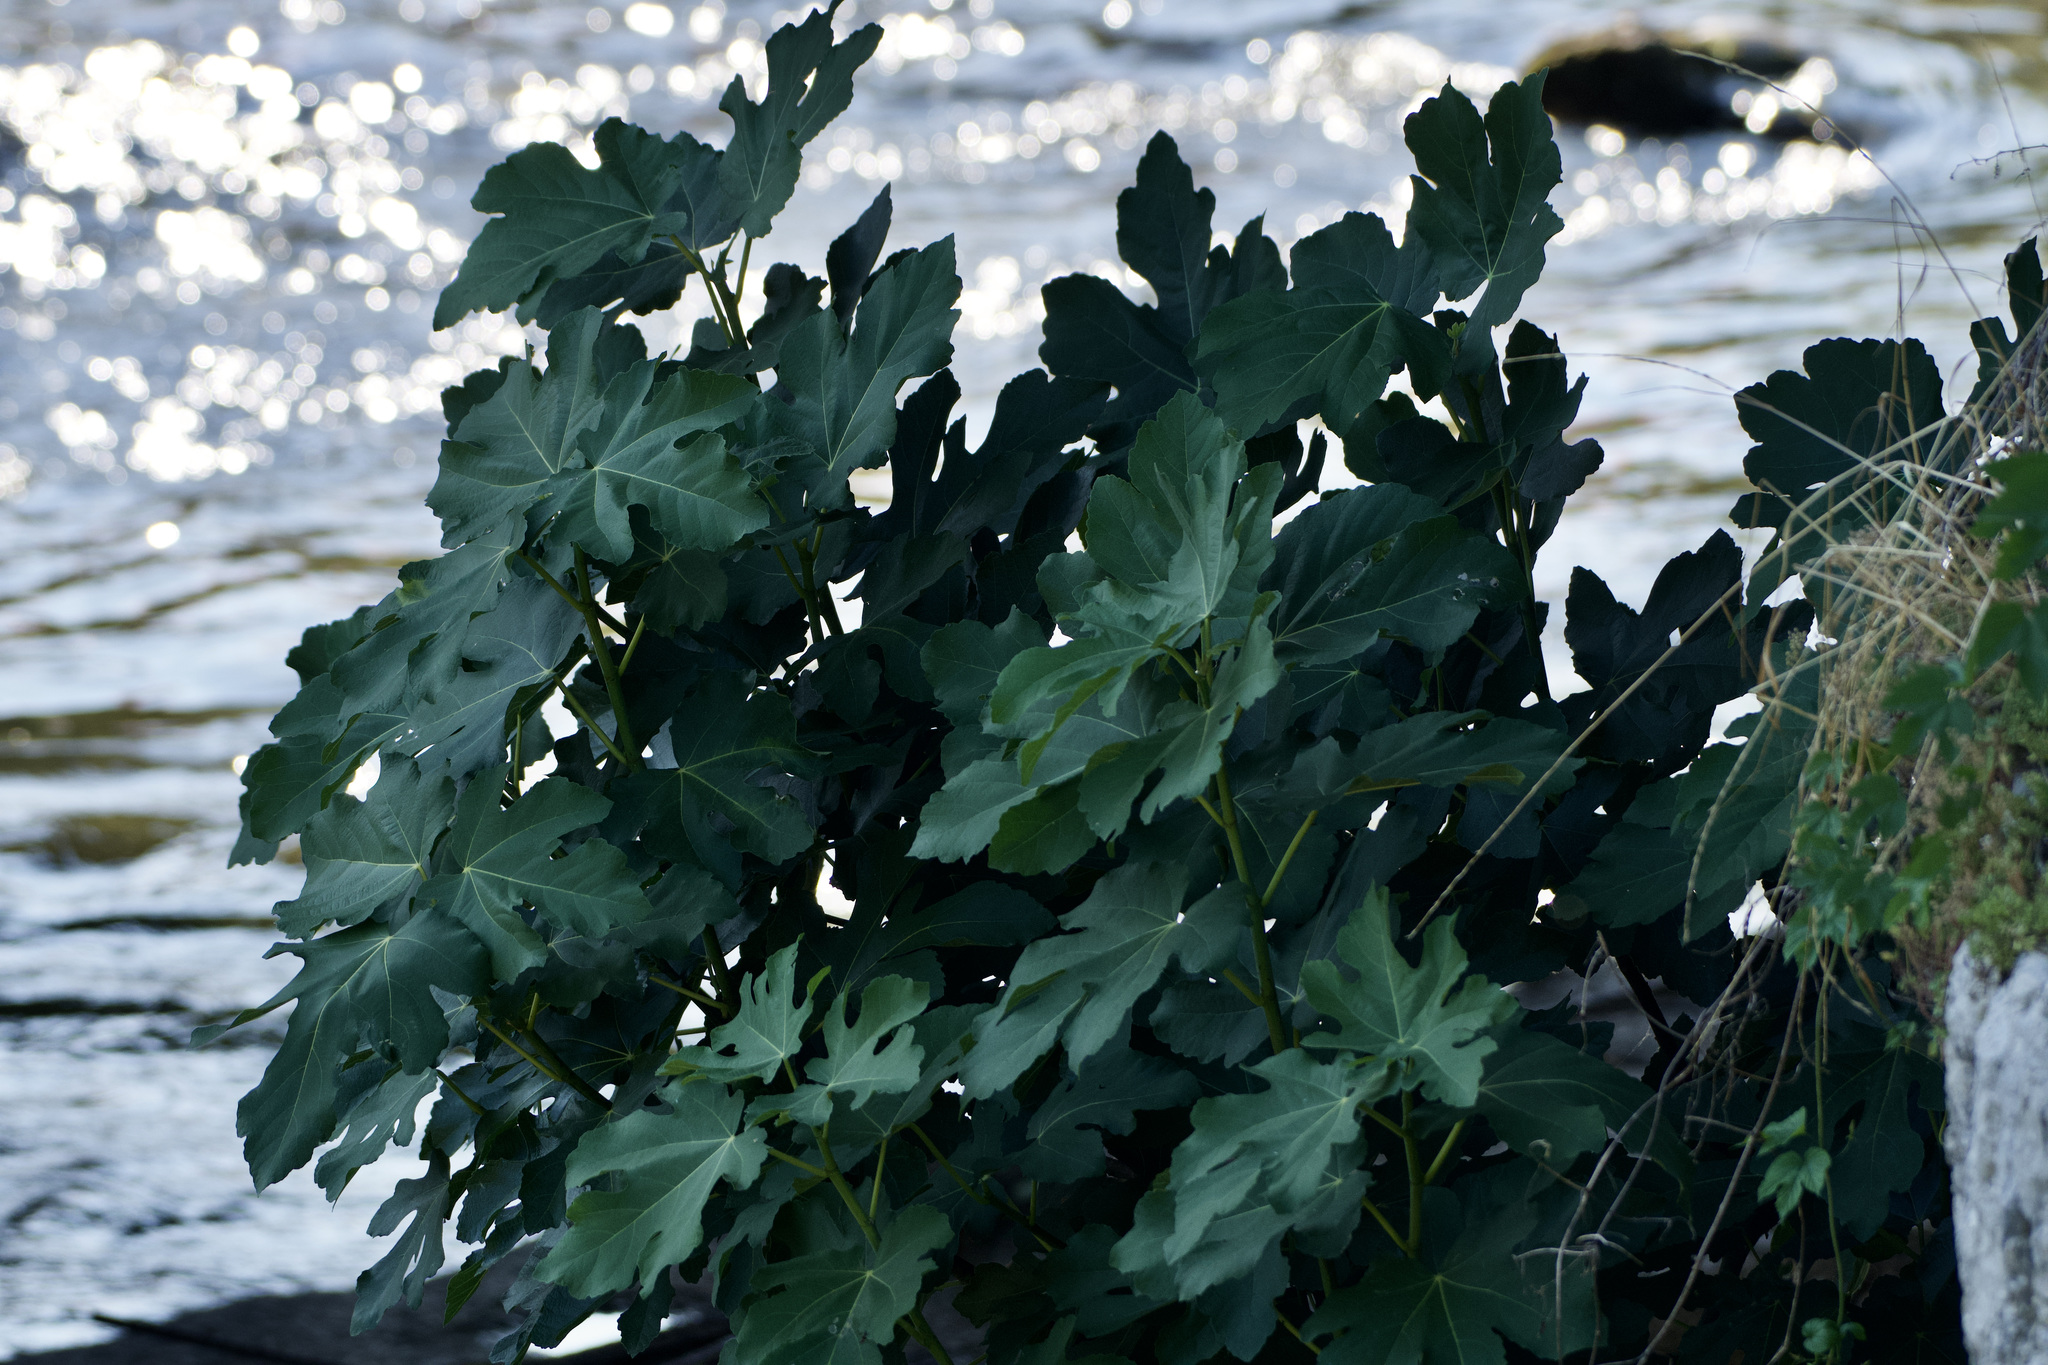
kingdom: Plantae
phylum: Tracheophyta
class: Magnoliopsida
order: Rosales
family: Moraceae
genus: Ficus
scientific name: Ficus carica
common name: Fig
